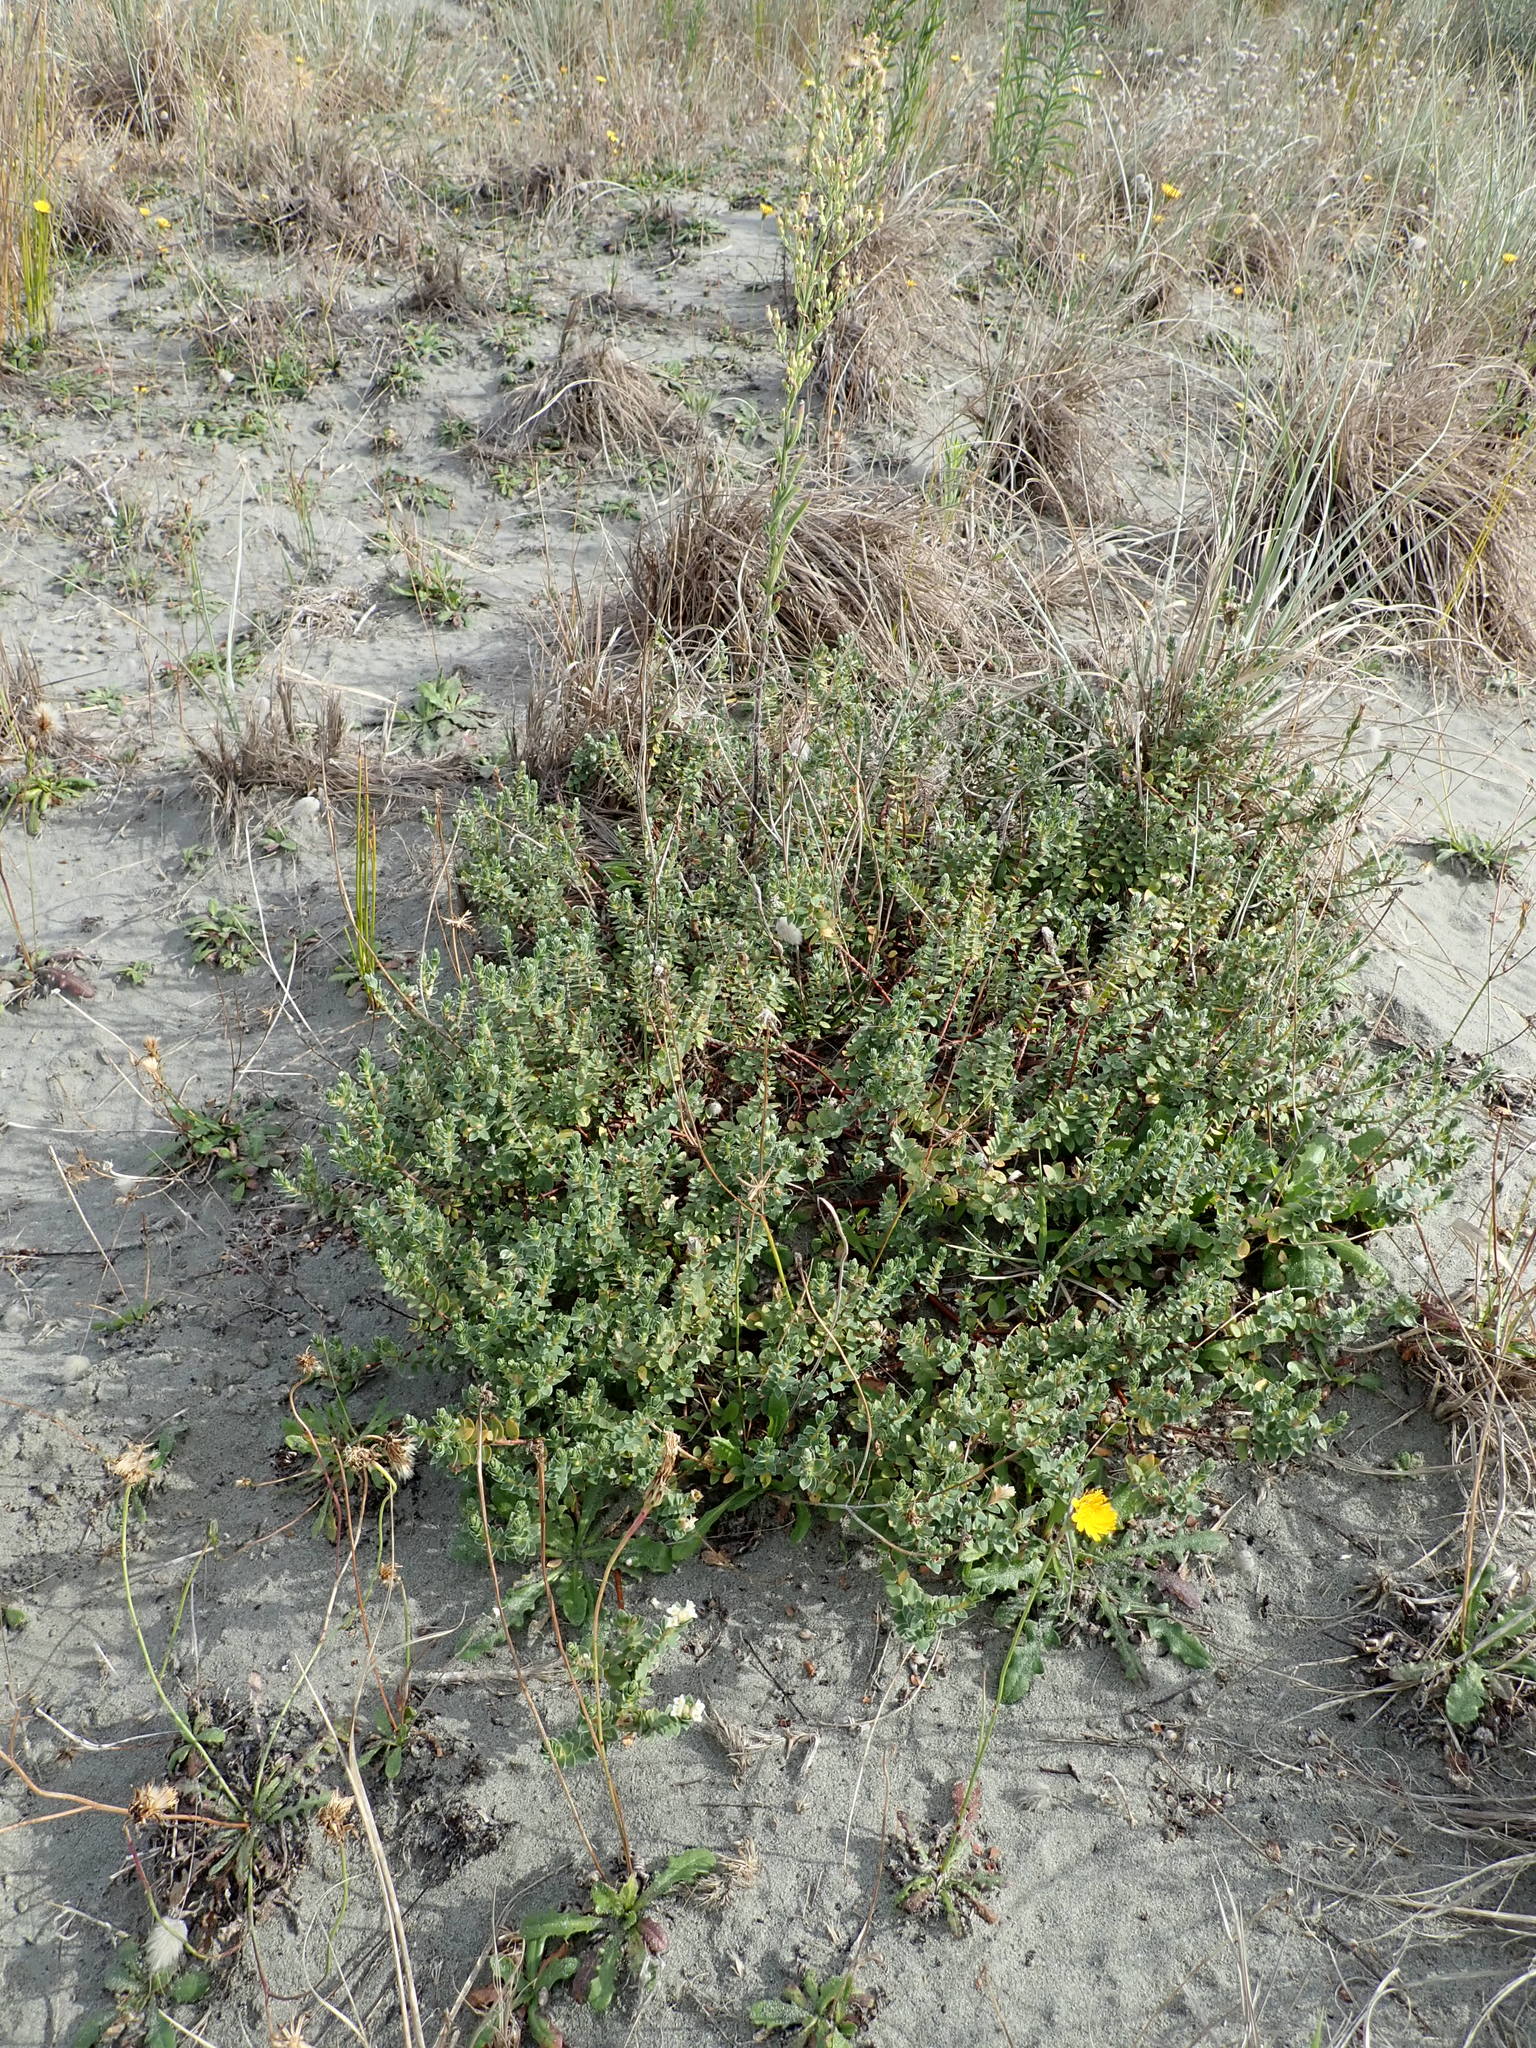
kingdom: Plantae
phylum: Tracheophyta
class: Magnoliopsida
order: Malvales
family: Thymelaeaceae
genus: Pimelea
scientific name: Pimelea villosa
